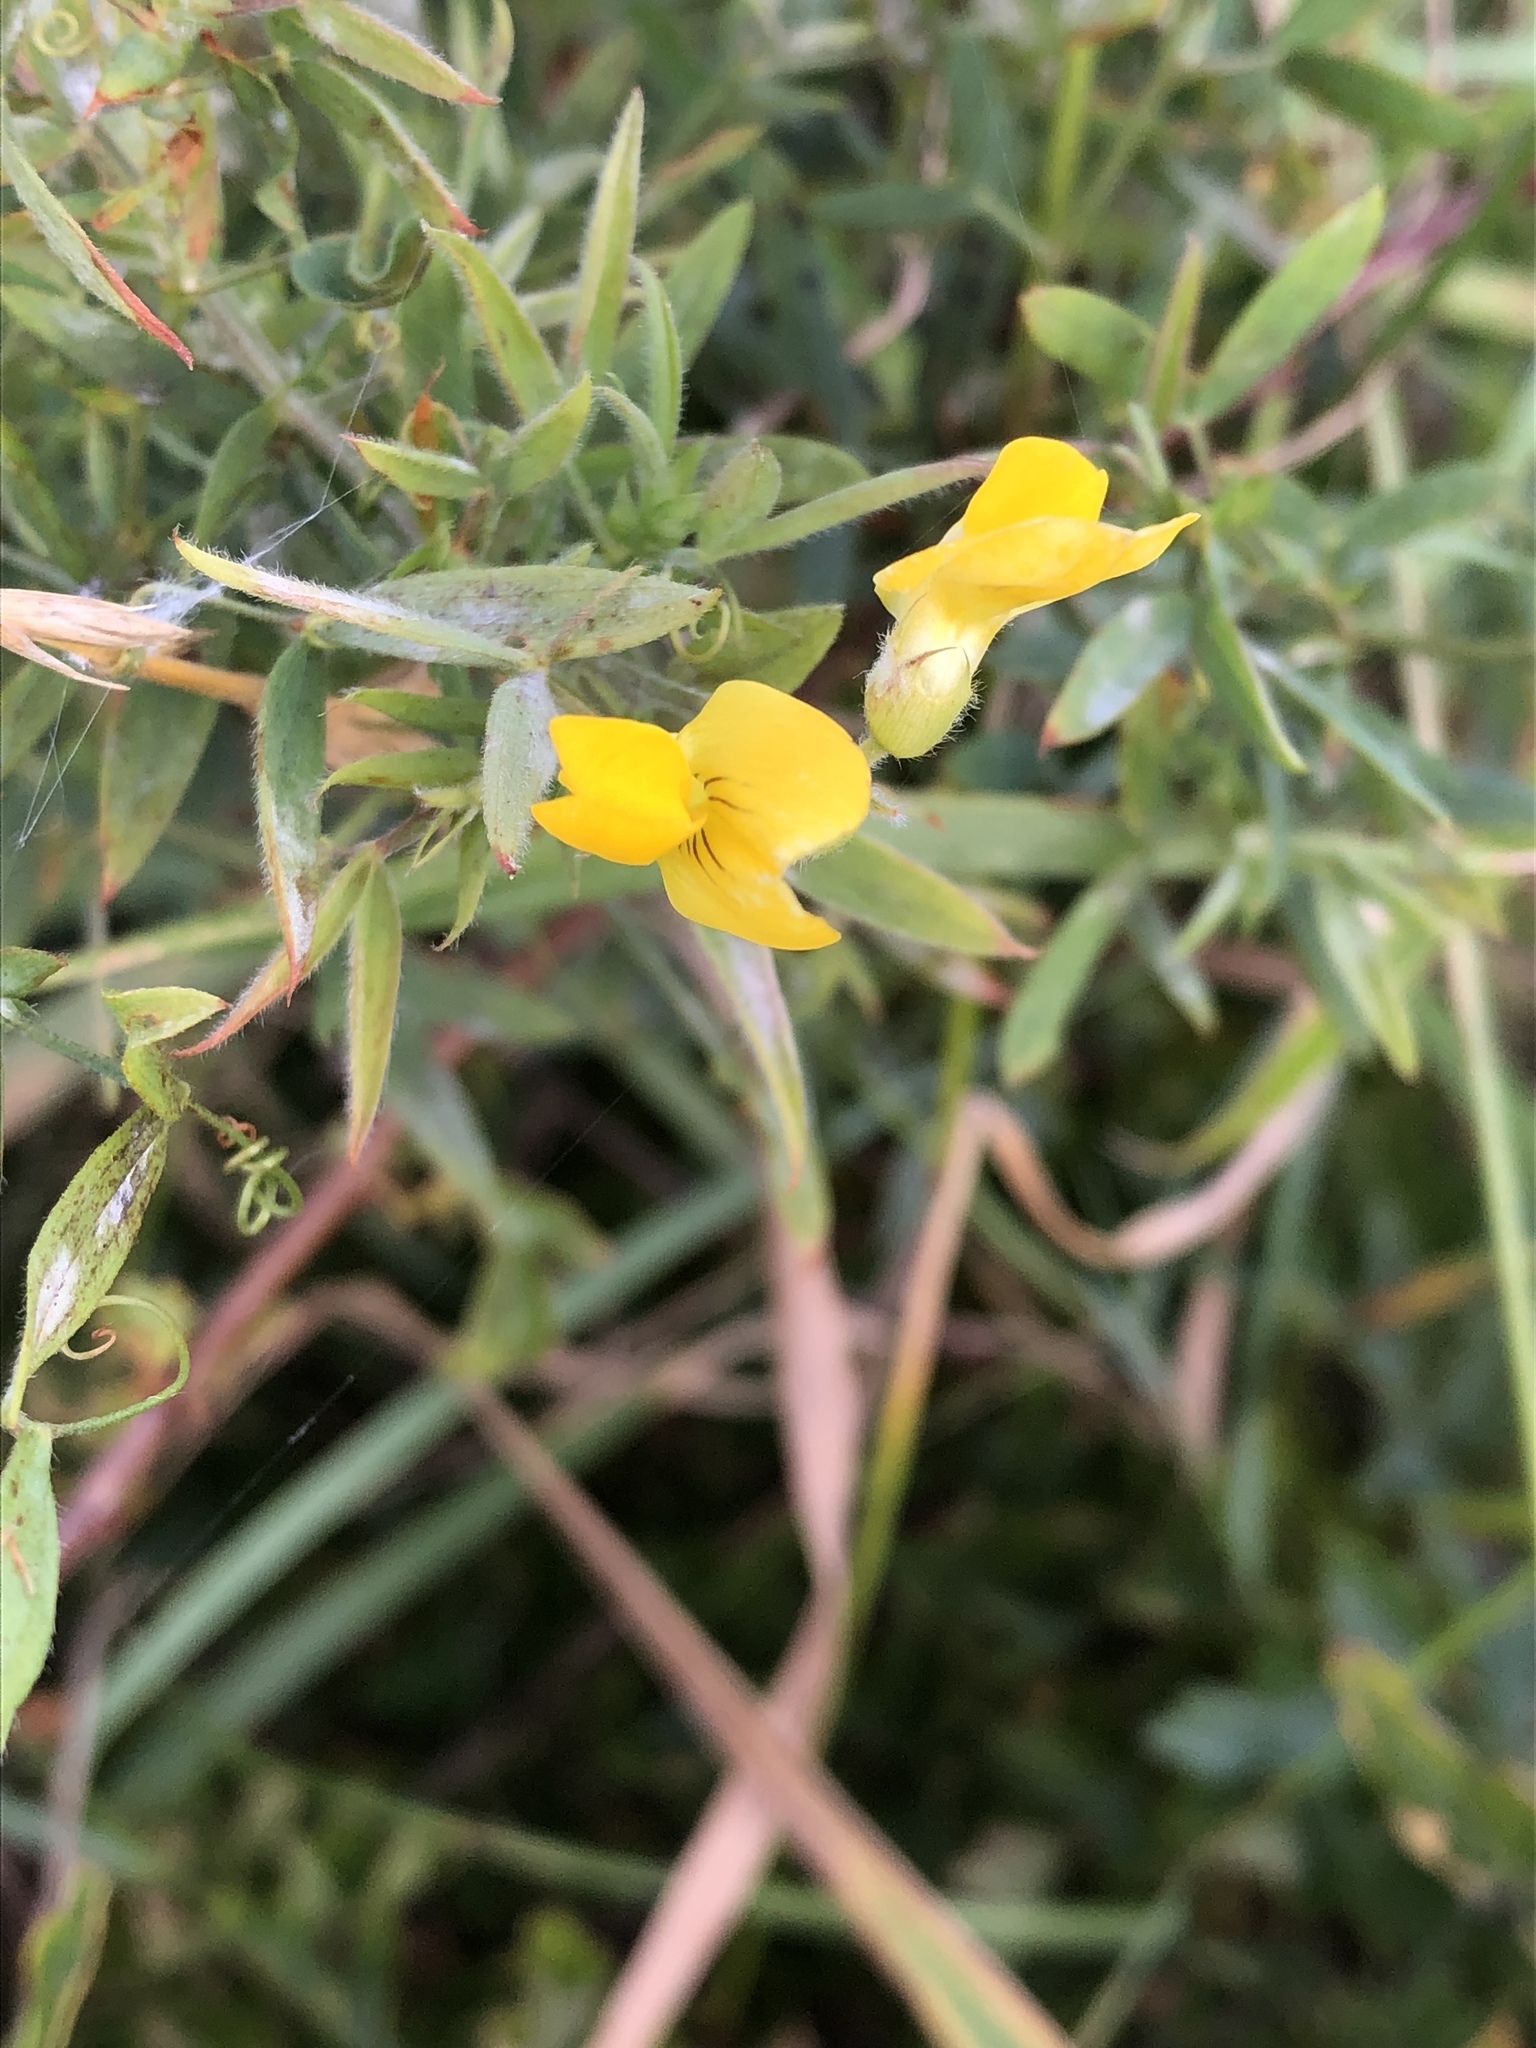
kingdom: Plantae
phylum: Tracheophyta
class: Magnoliopsida
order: Fabales
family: Fabaceae
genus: Lathyrus
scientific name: Lathyrus pratensis
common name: Meadow vetchling
